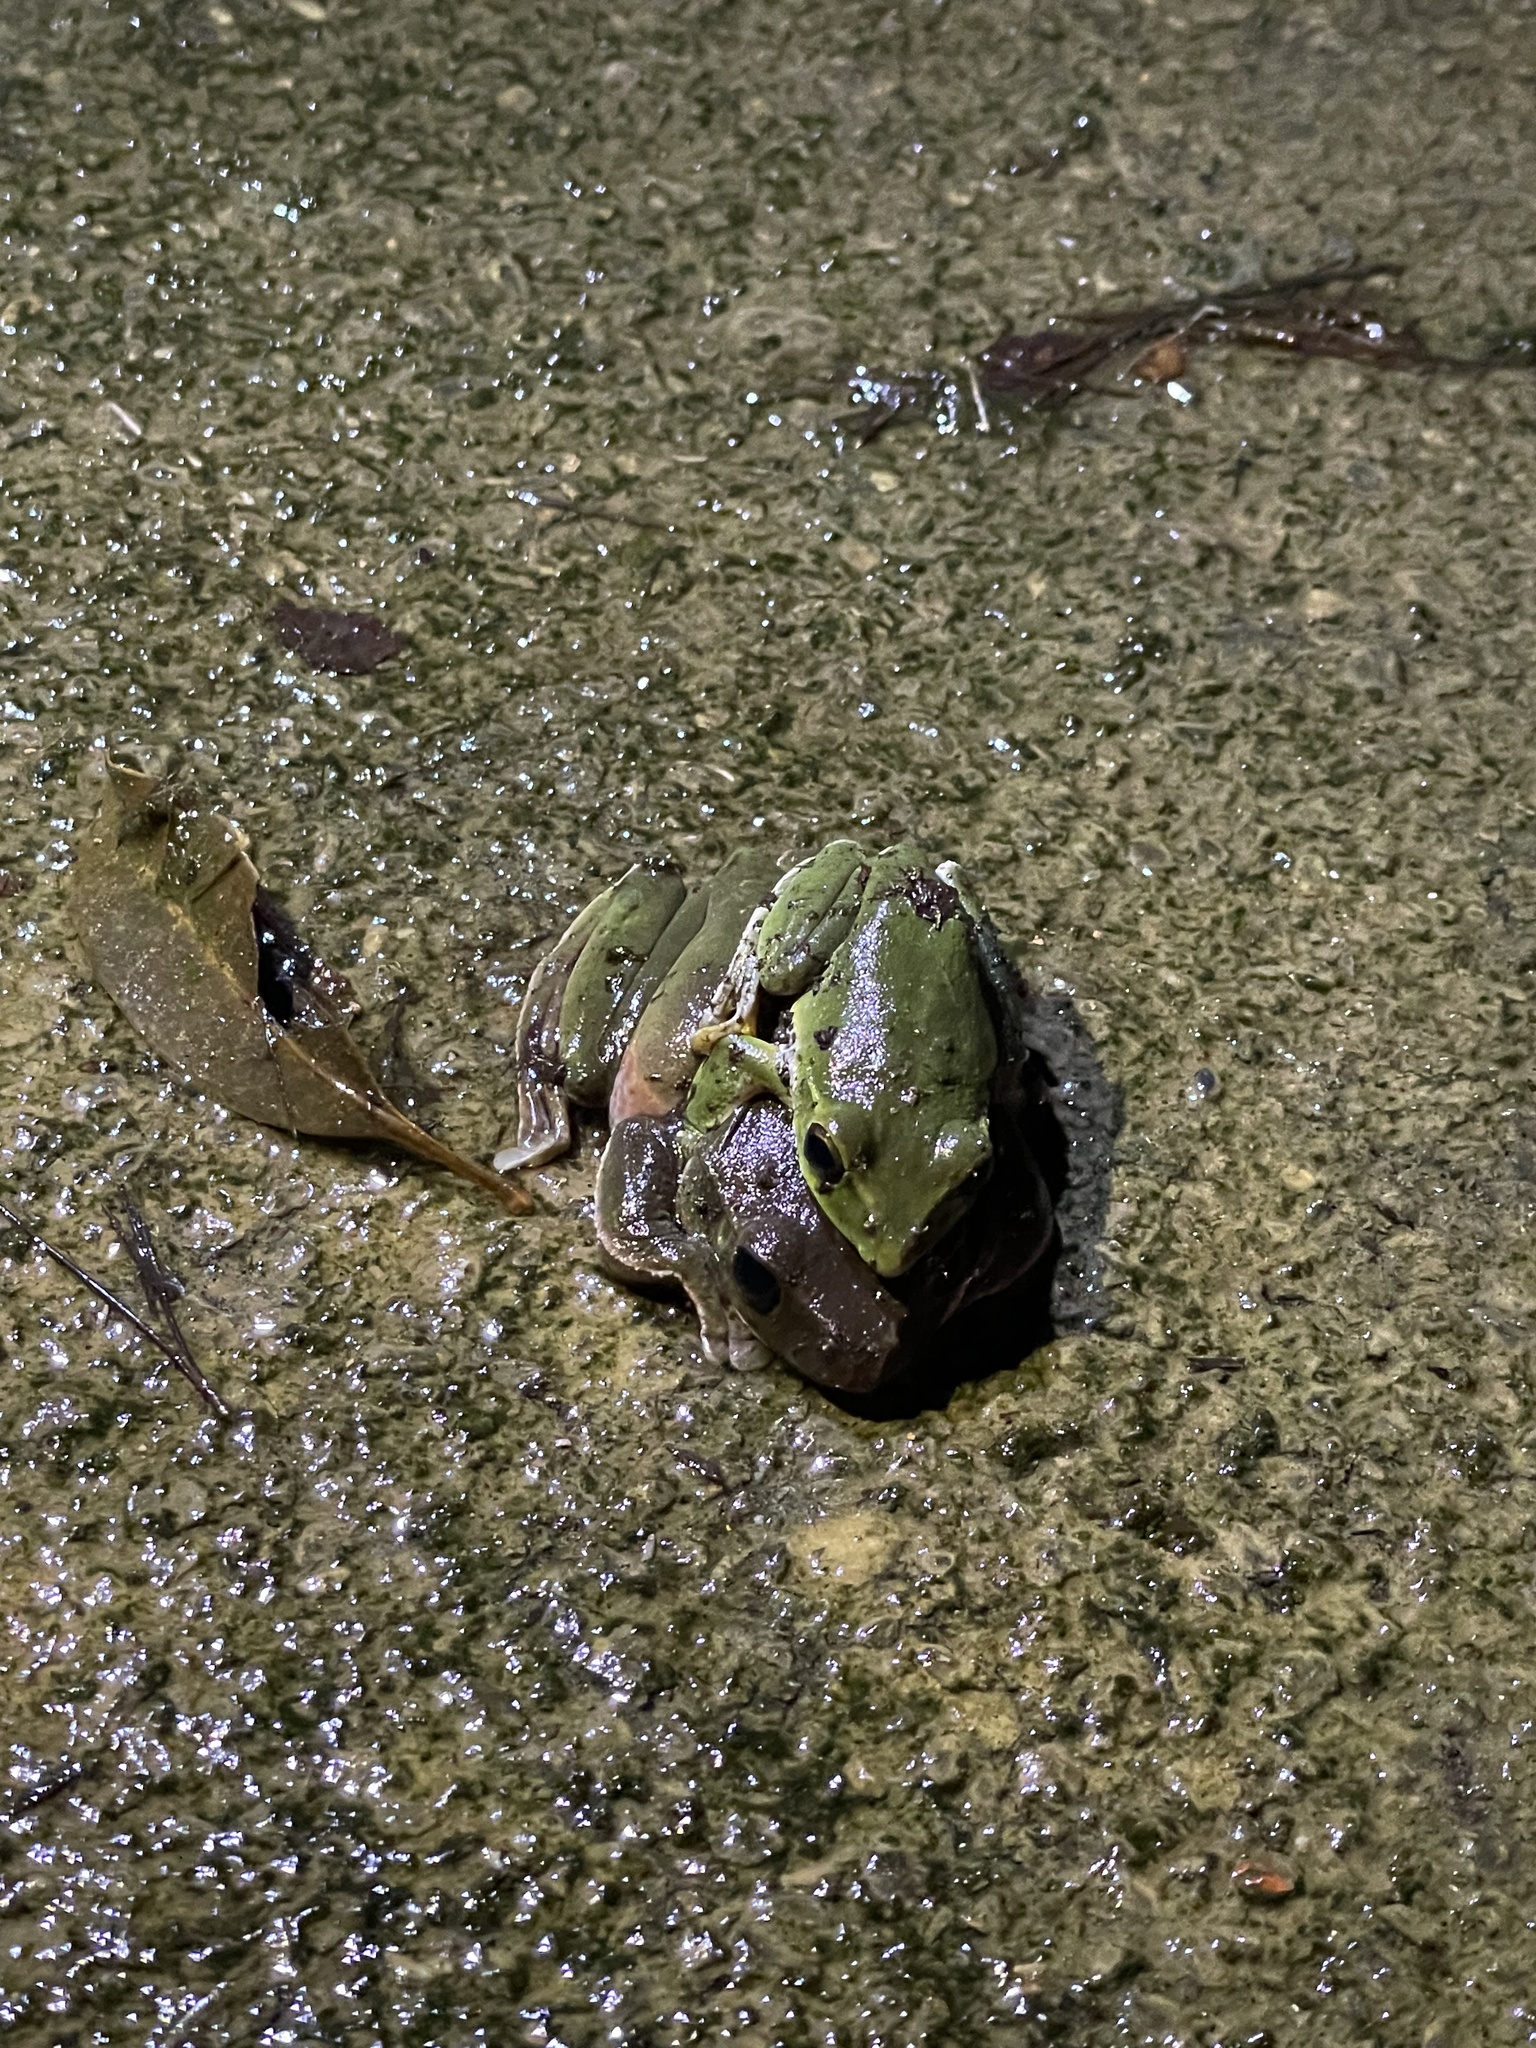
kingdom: Animalia
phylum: Chordata
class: Amphibia
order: Anura
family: Rhacophoridae
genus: Zhangixalus
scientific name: Zhangixalus viridis
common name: Green flying frog
